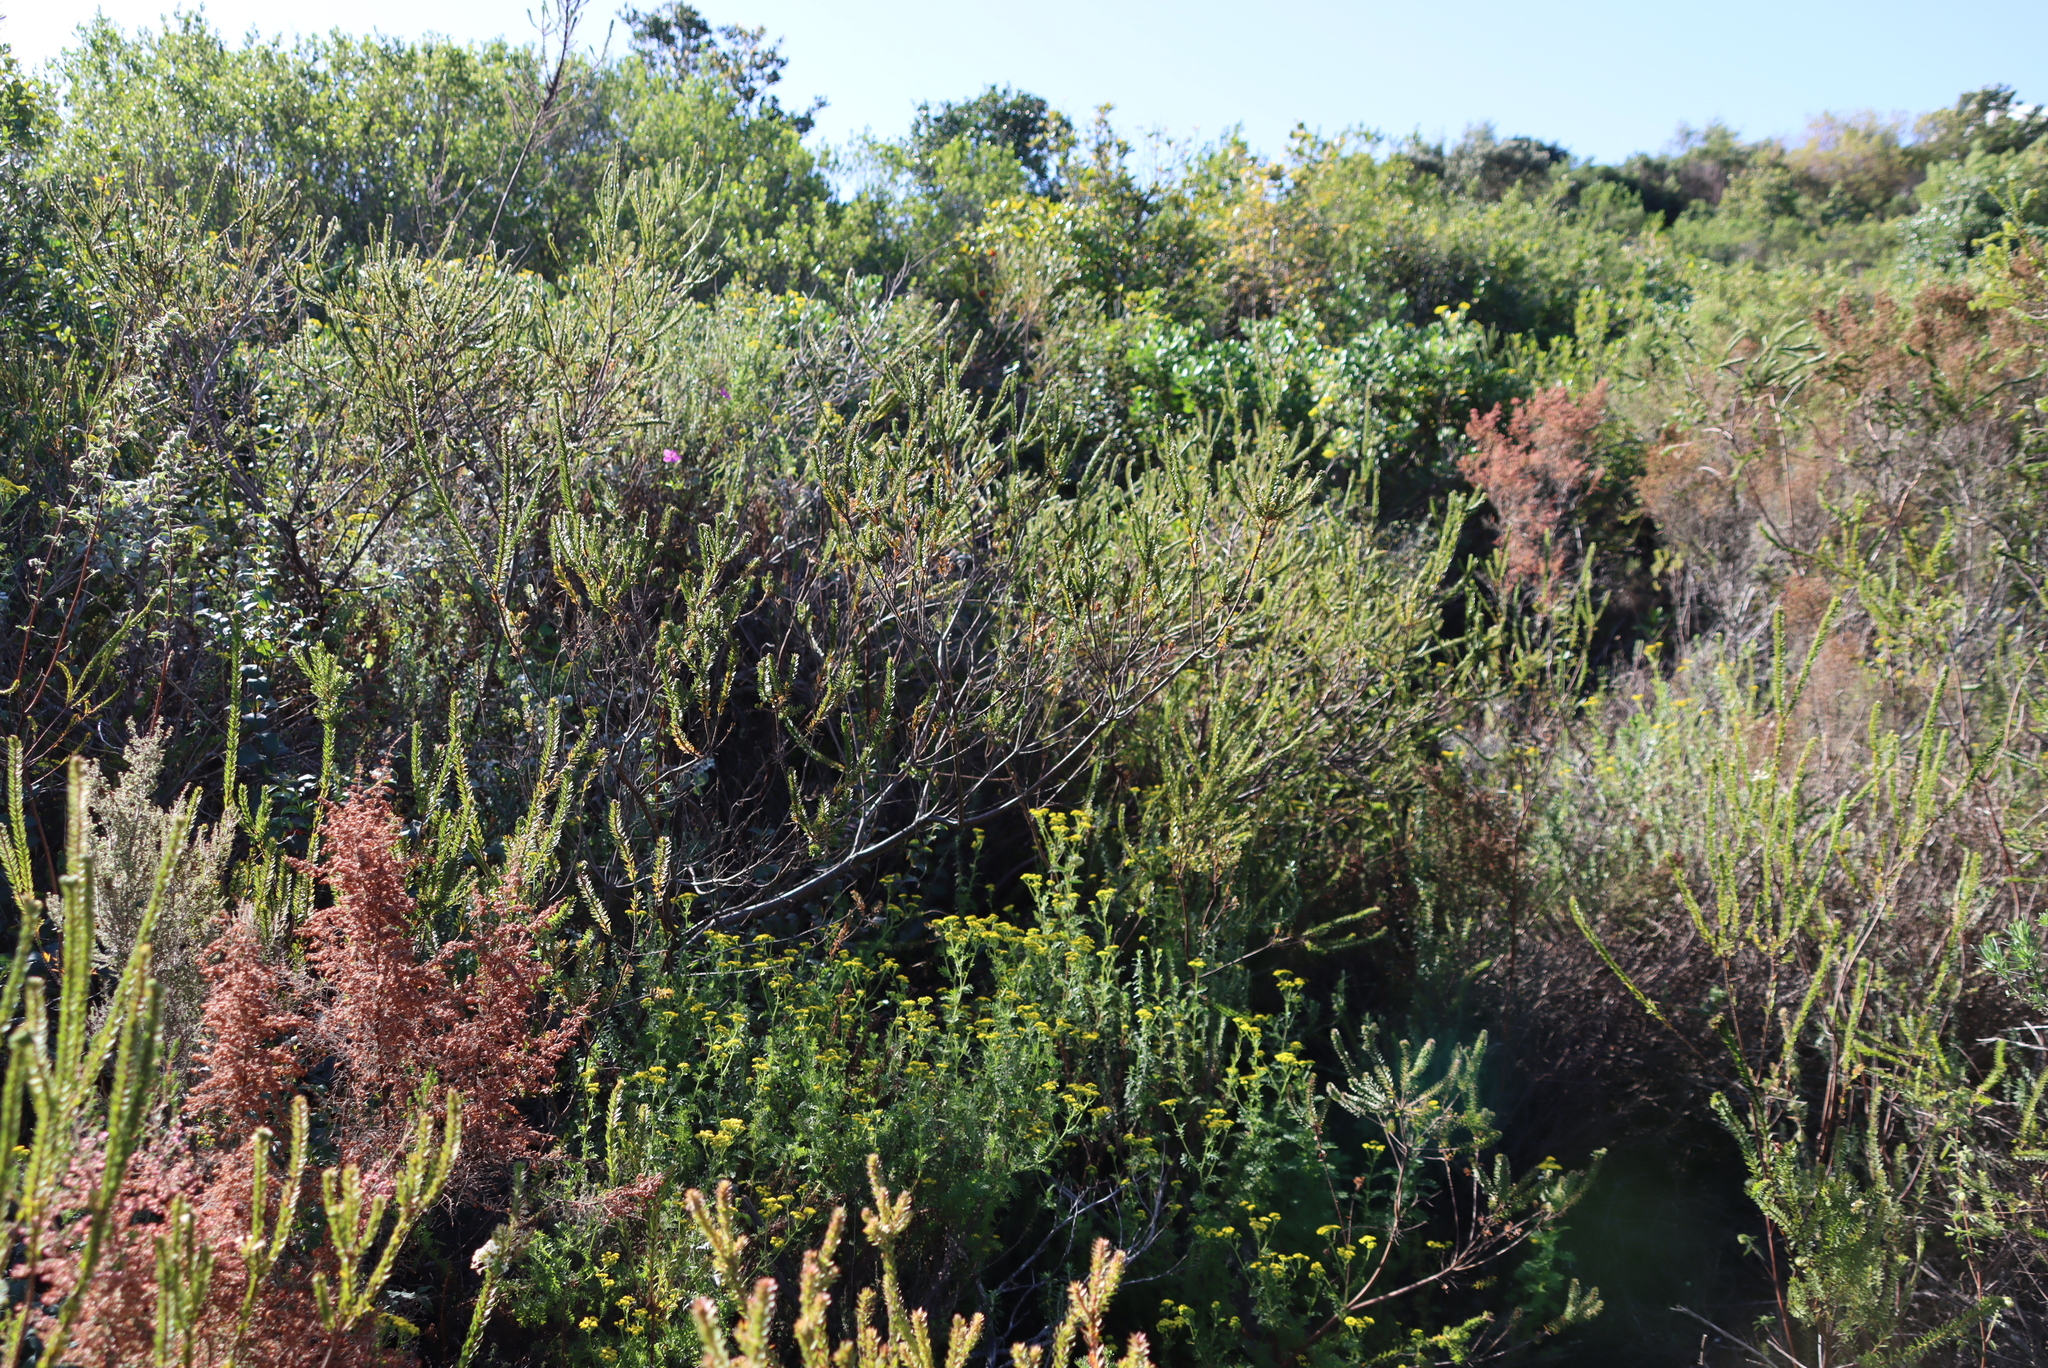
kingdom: Plantae
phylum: Tracheophyta
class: Magnoliopsida
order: Malvales
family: Thymelaeaceae
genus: Struthiola
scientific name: Struthiola hirsuta
